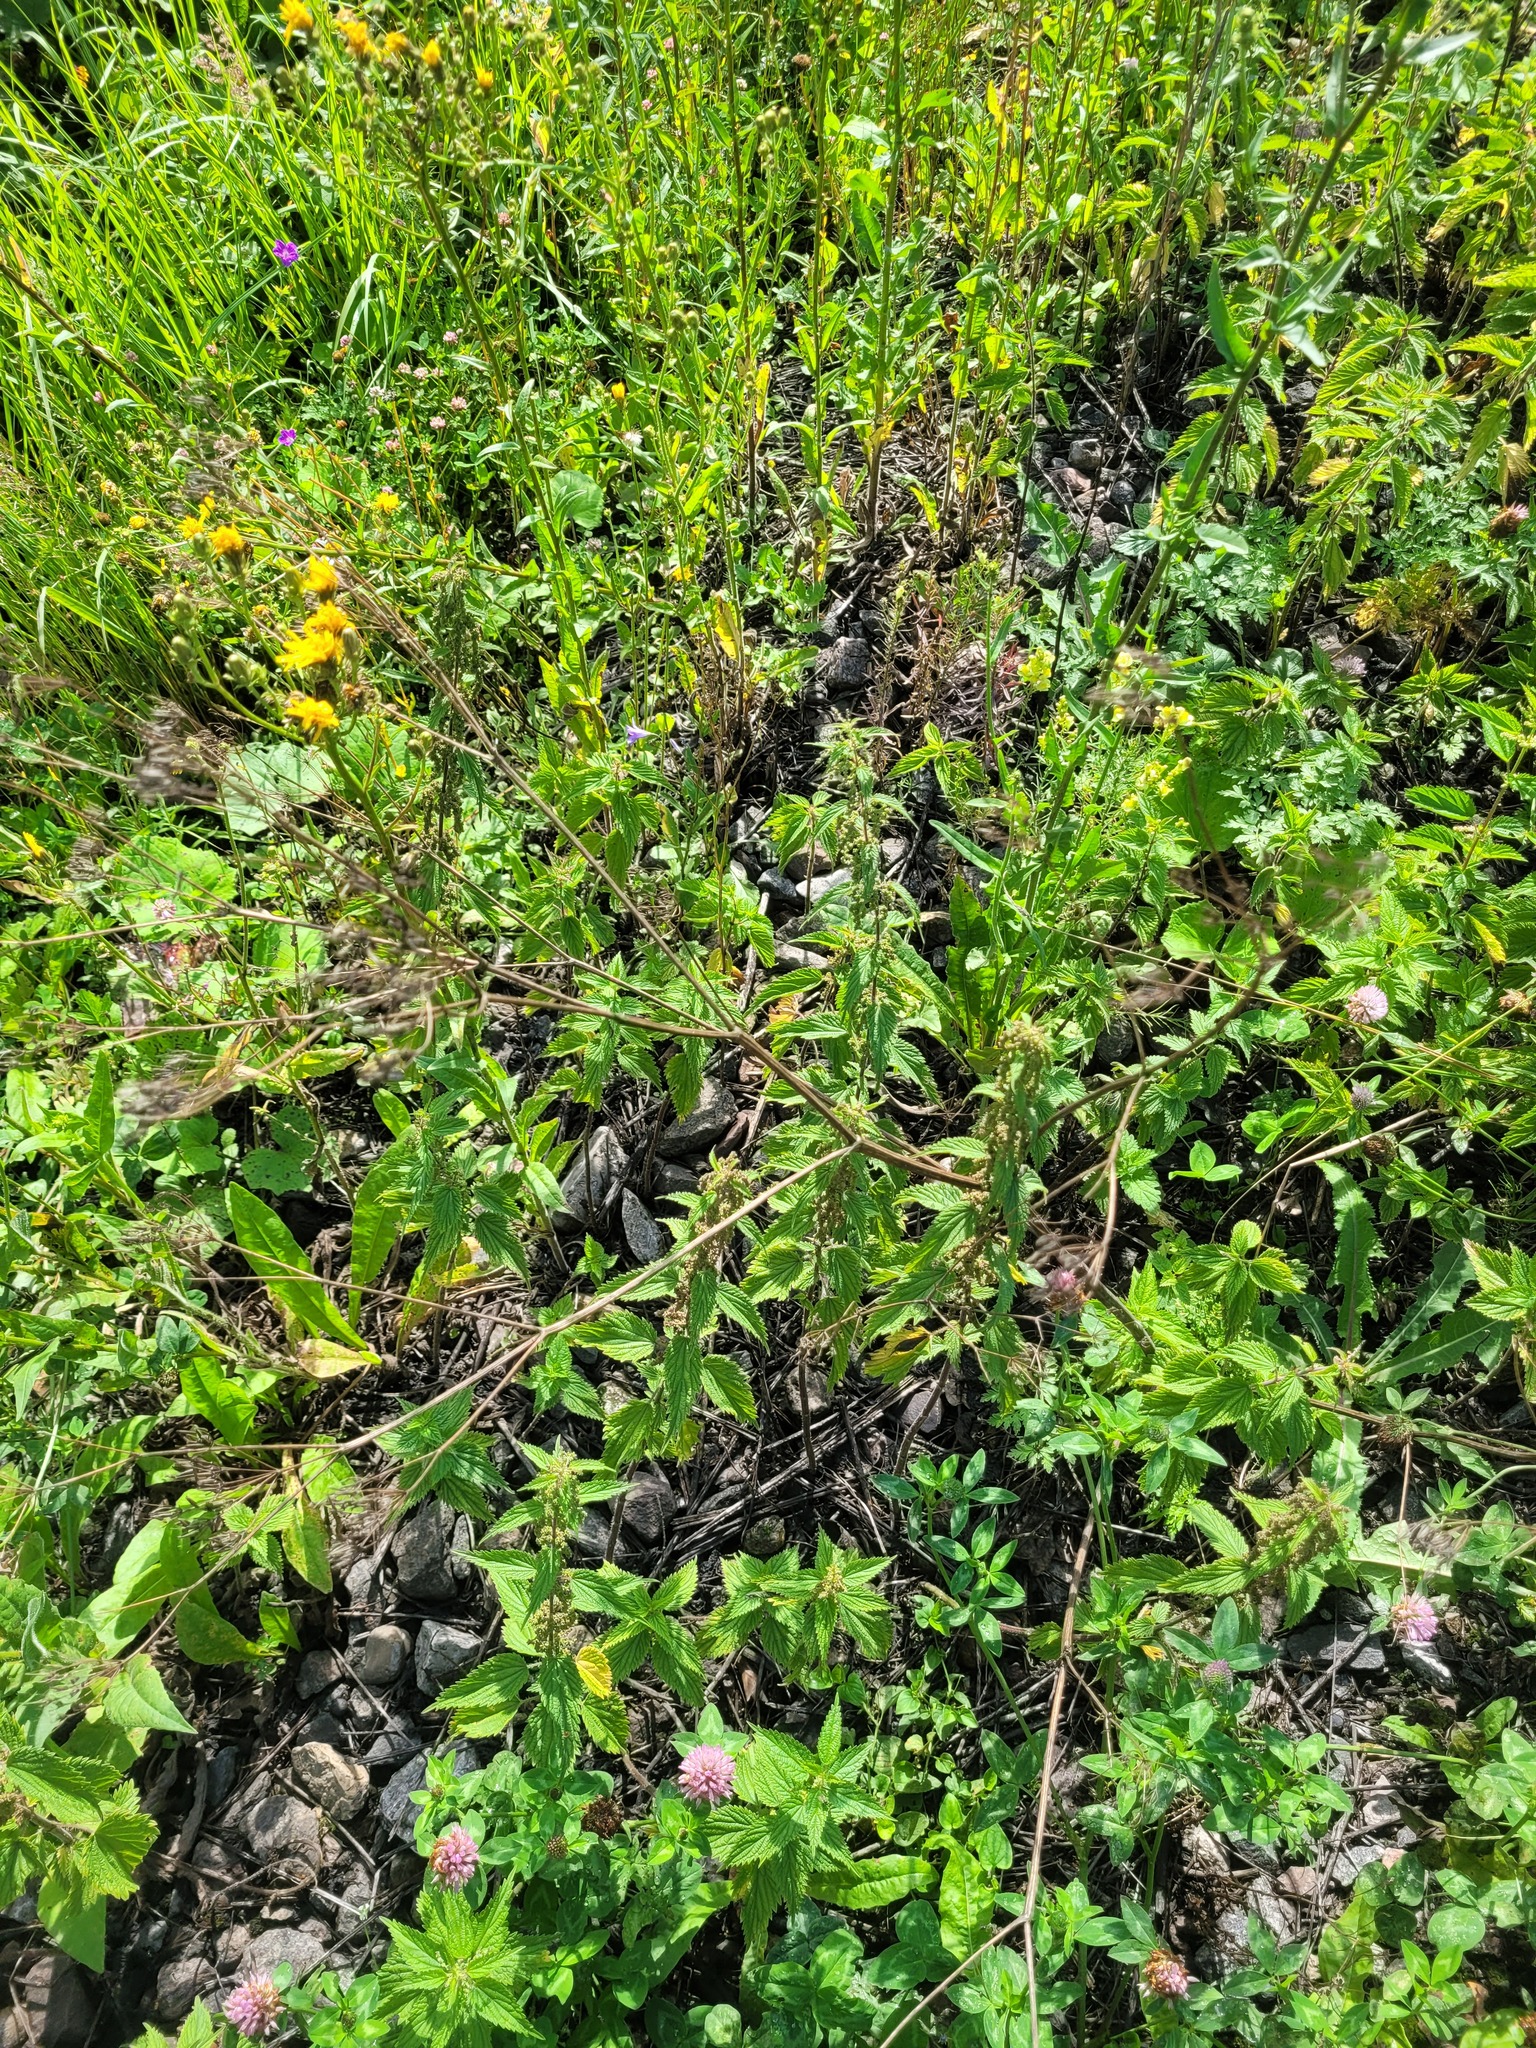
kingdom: Plantae
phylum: Tracheophyta
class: Magnoliopsida
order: Rosales
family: Urticaceae
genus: Urtica
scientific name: Urtica dioica
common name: Common nettle
